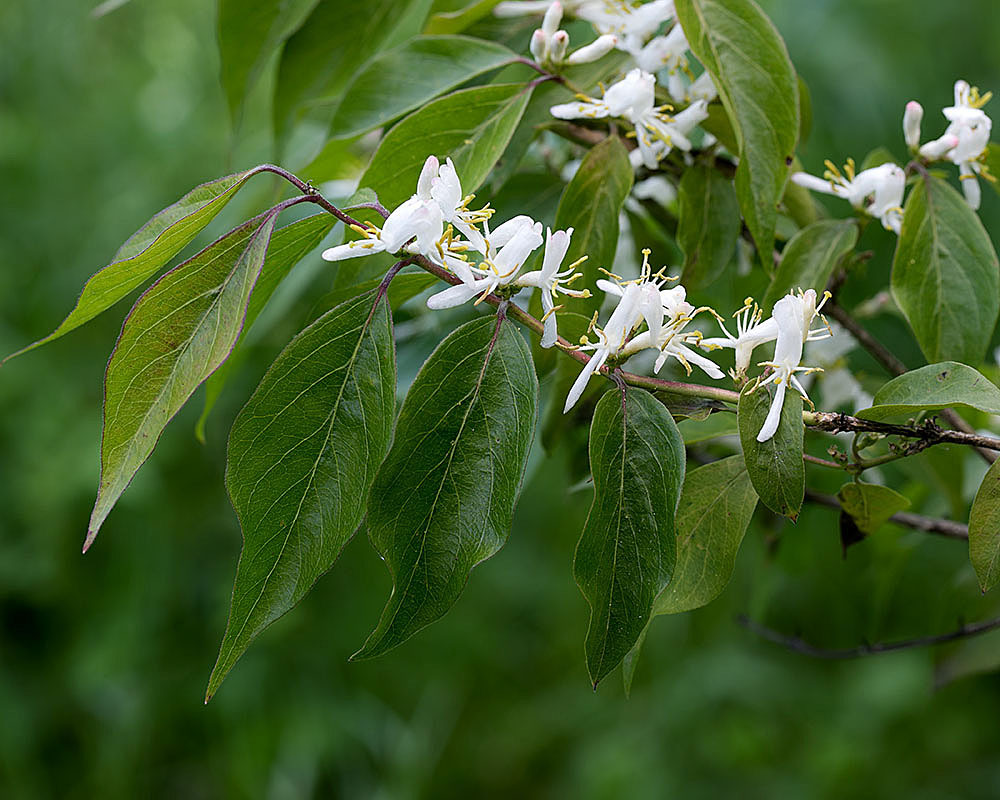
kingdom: Plantae
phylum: Tracheophyta
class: Magnoliopsida
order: Dipsacales
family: Caprifoliaceae
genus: Lonicera
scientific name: Lonicera maackii
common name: Amur honeysuckle
